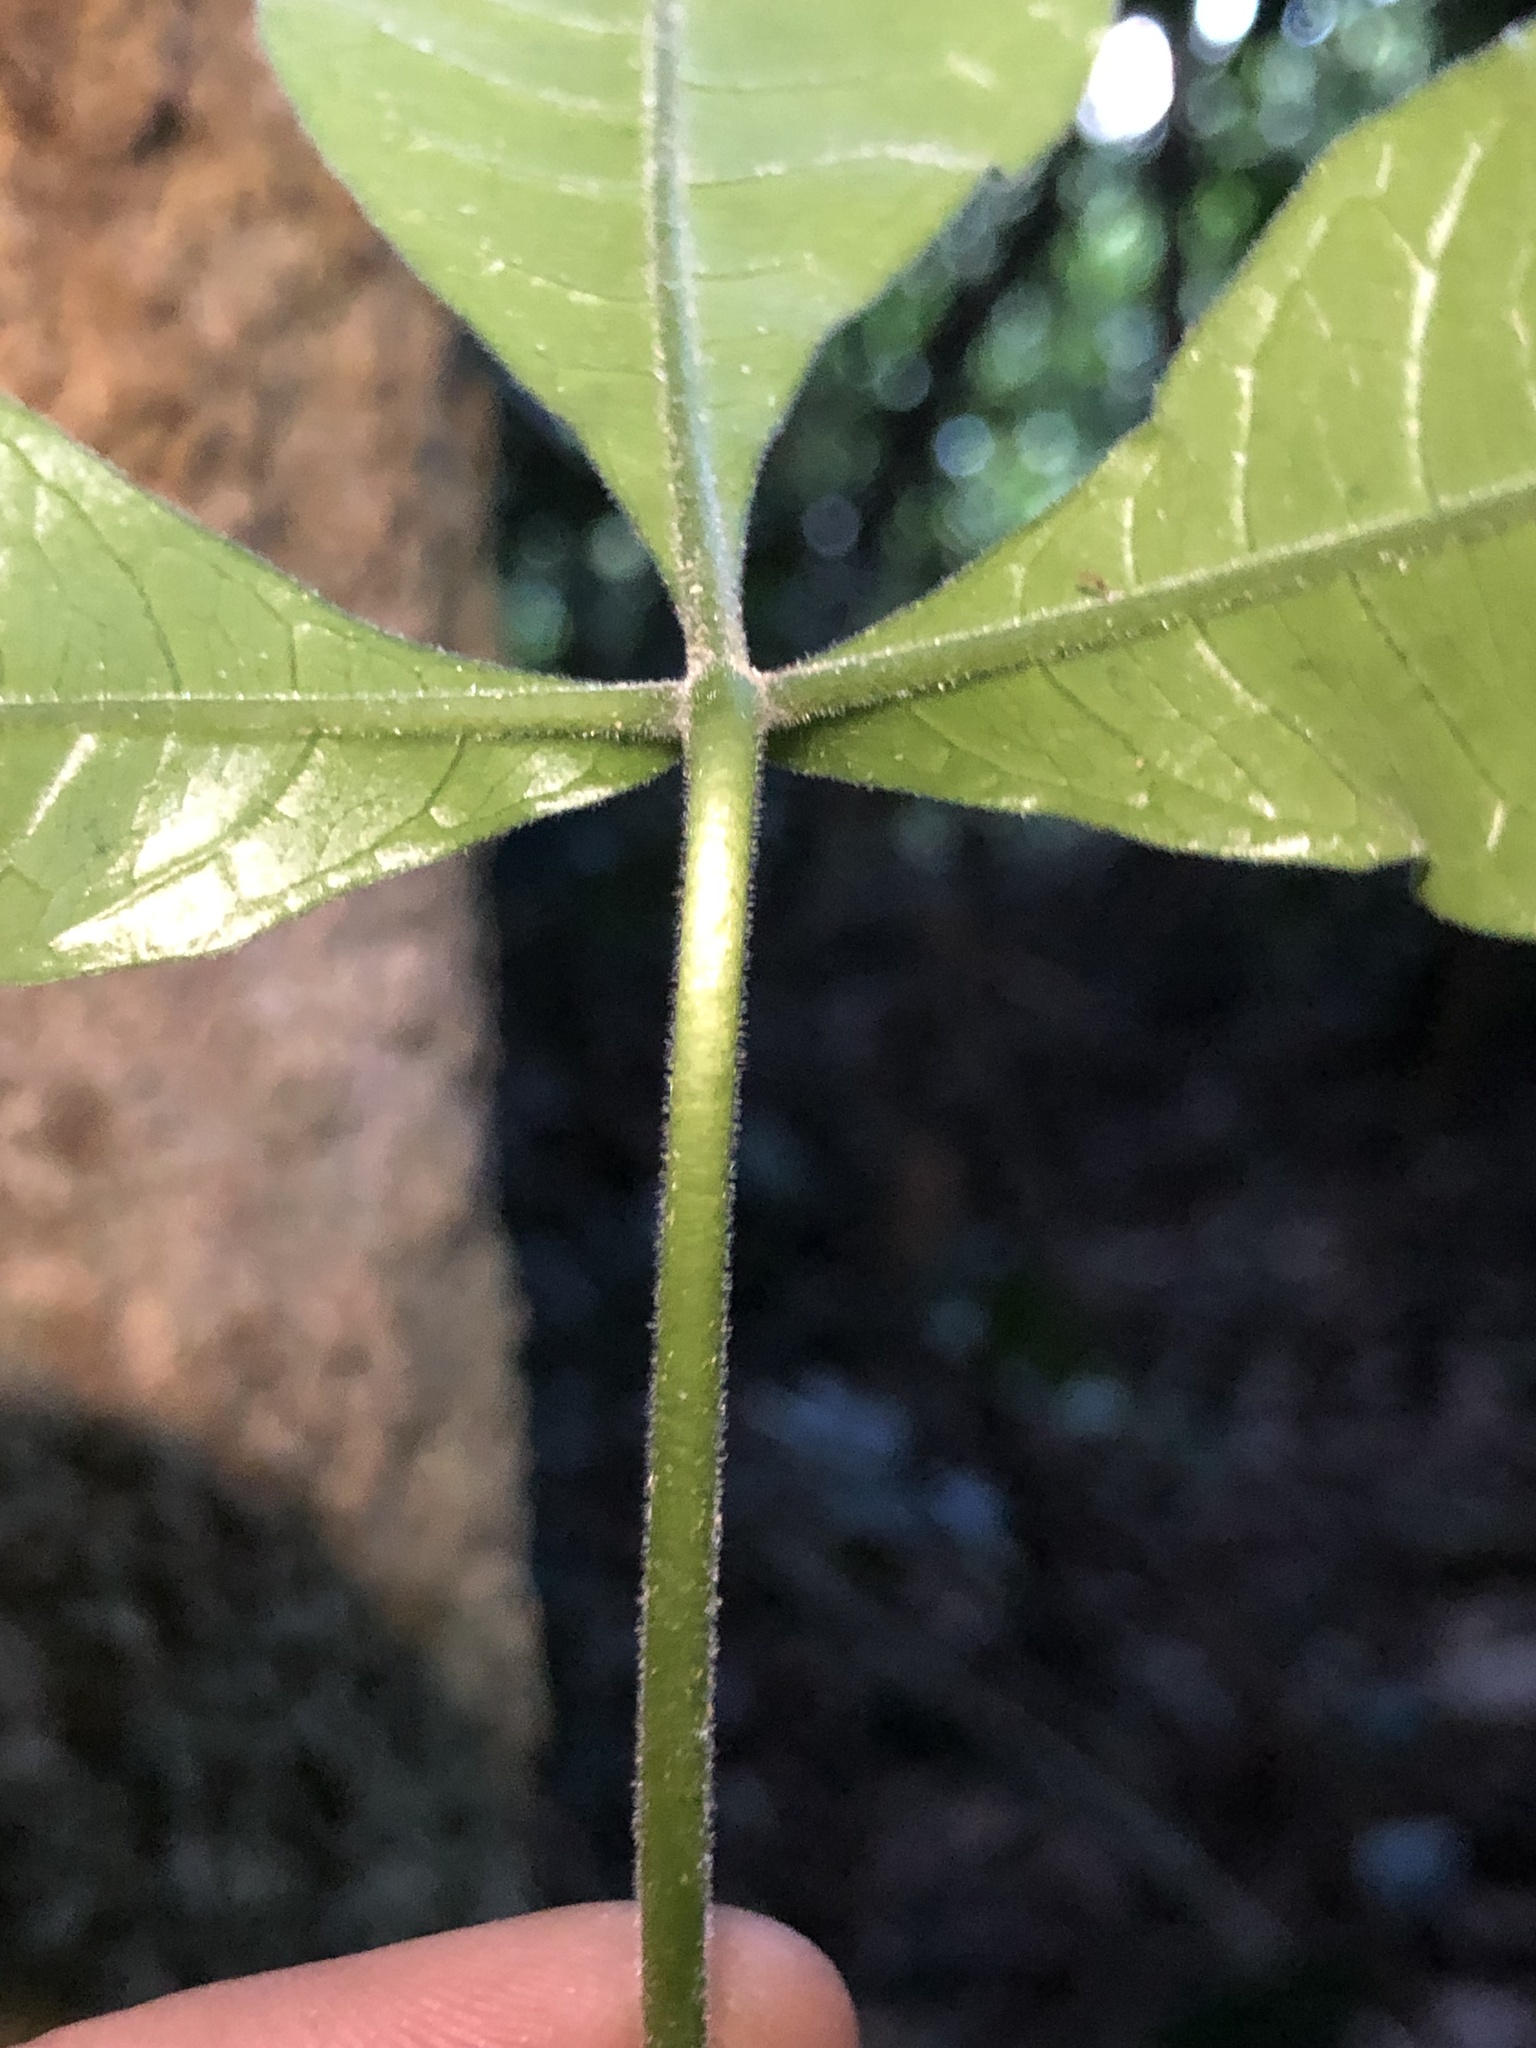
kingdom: Plantae
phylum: Tracheophyta
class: Magnoliopsida
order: Sapindales
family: Rutaceae
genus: Melicope
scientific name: Melicope micrococca
